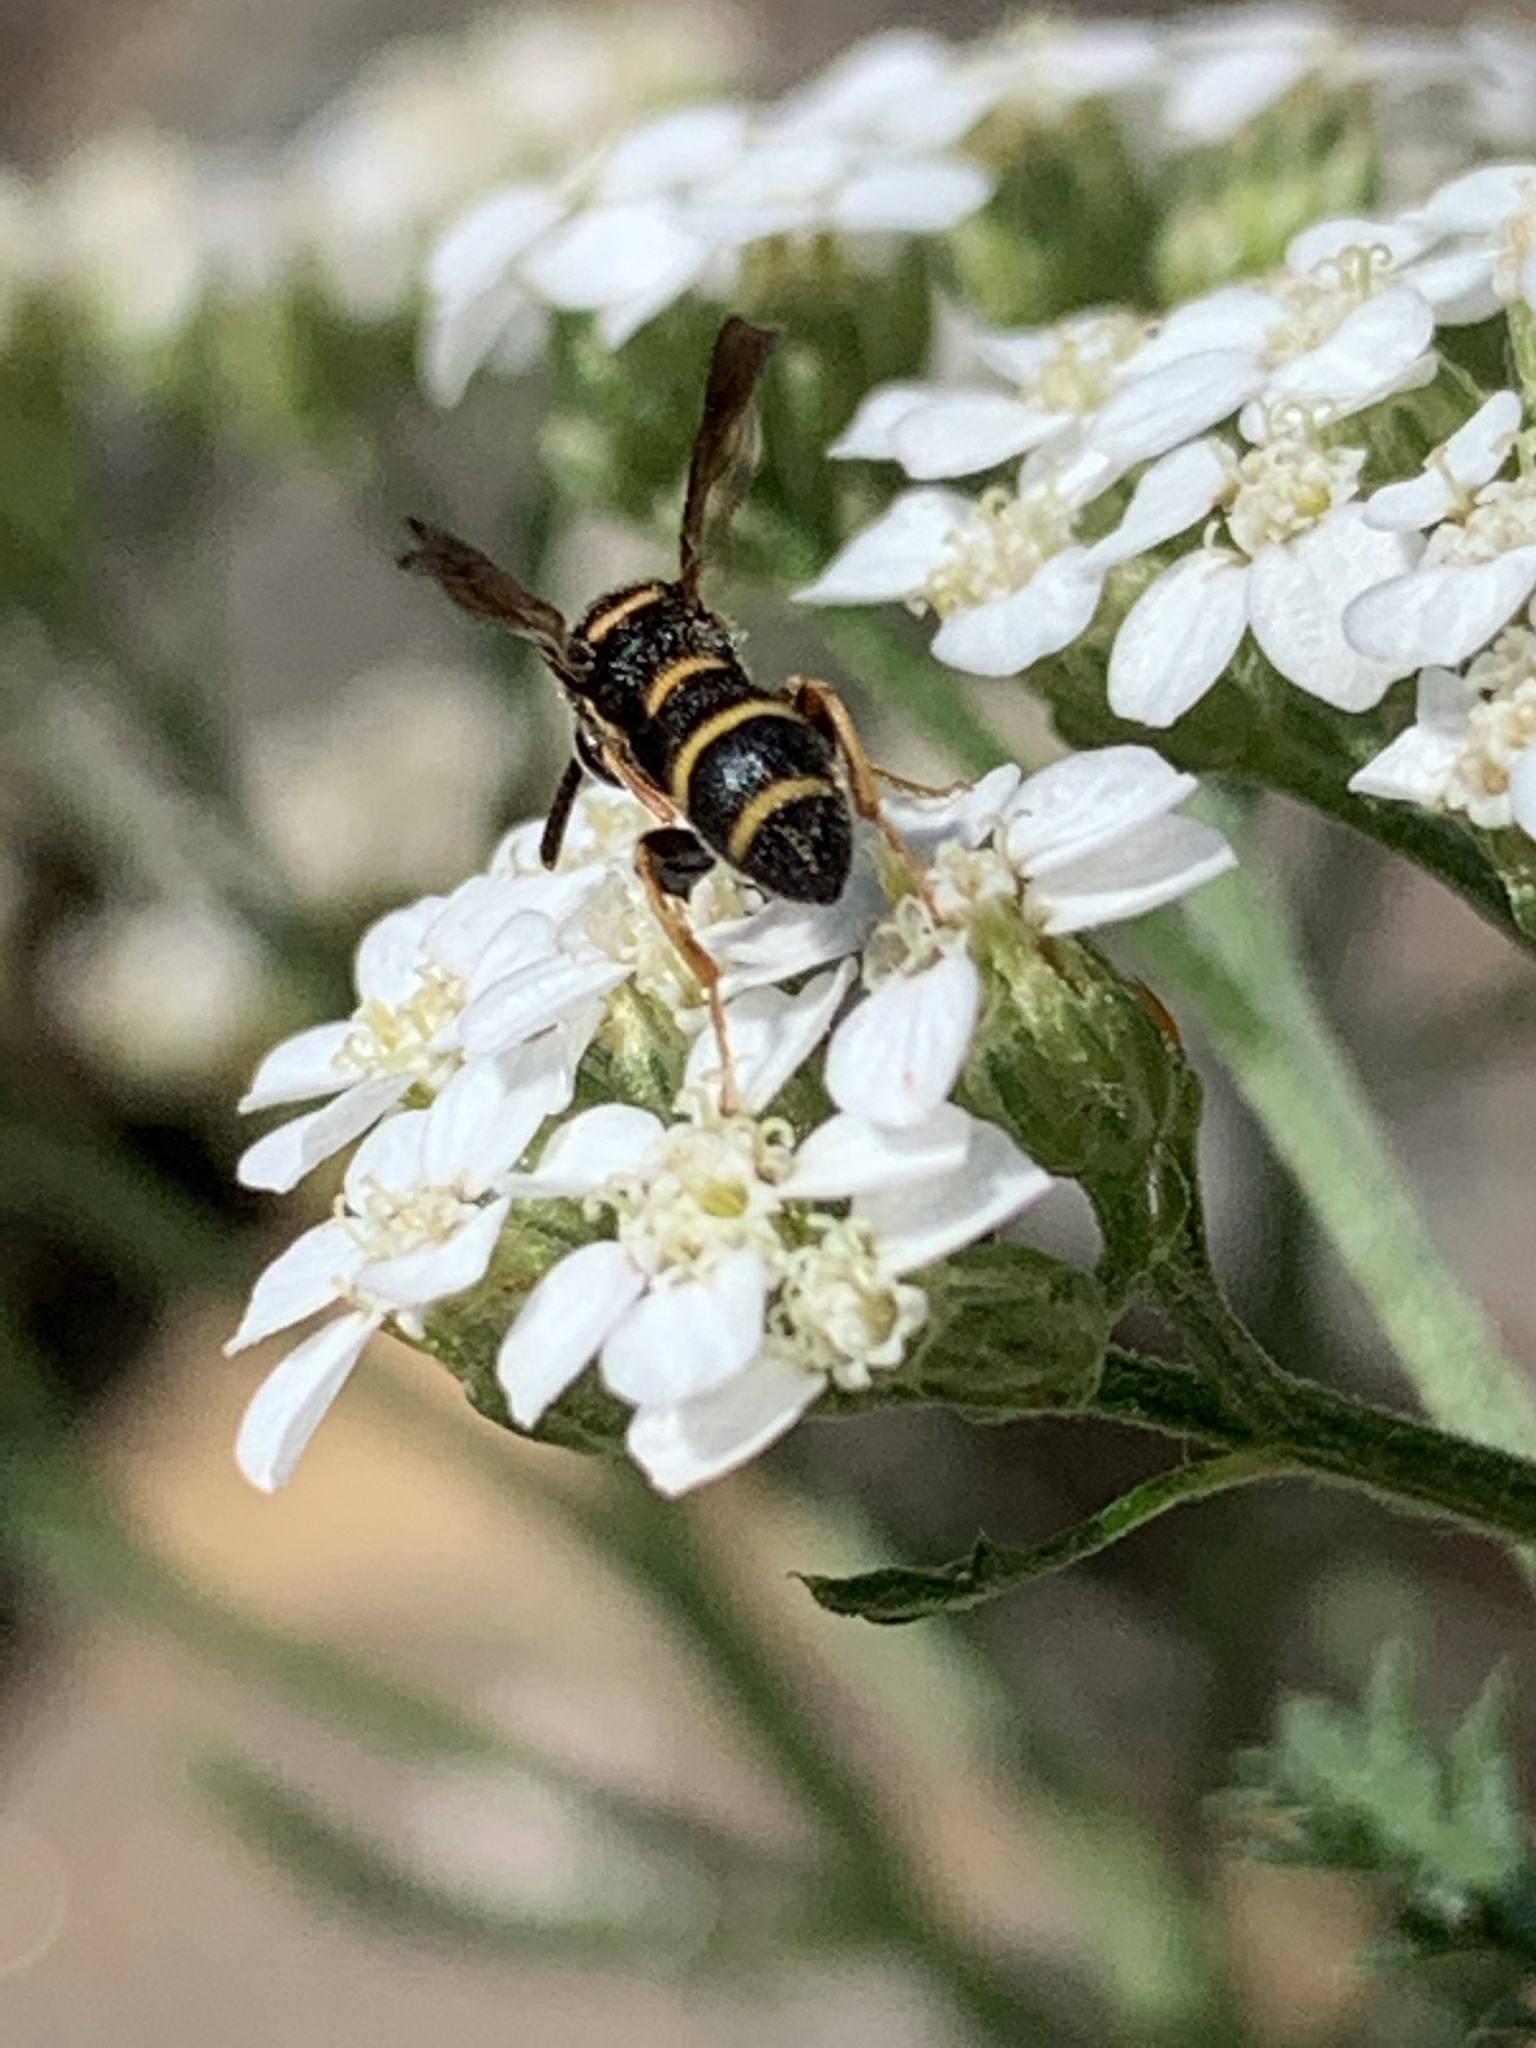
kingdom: Animalia
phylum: Arthropoda
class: Insecta
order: Hymenoptera
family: Leucospidae
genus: Leucospis
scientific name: Leucospis affinis
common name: Wasp
